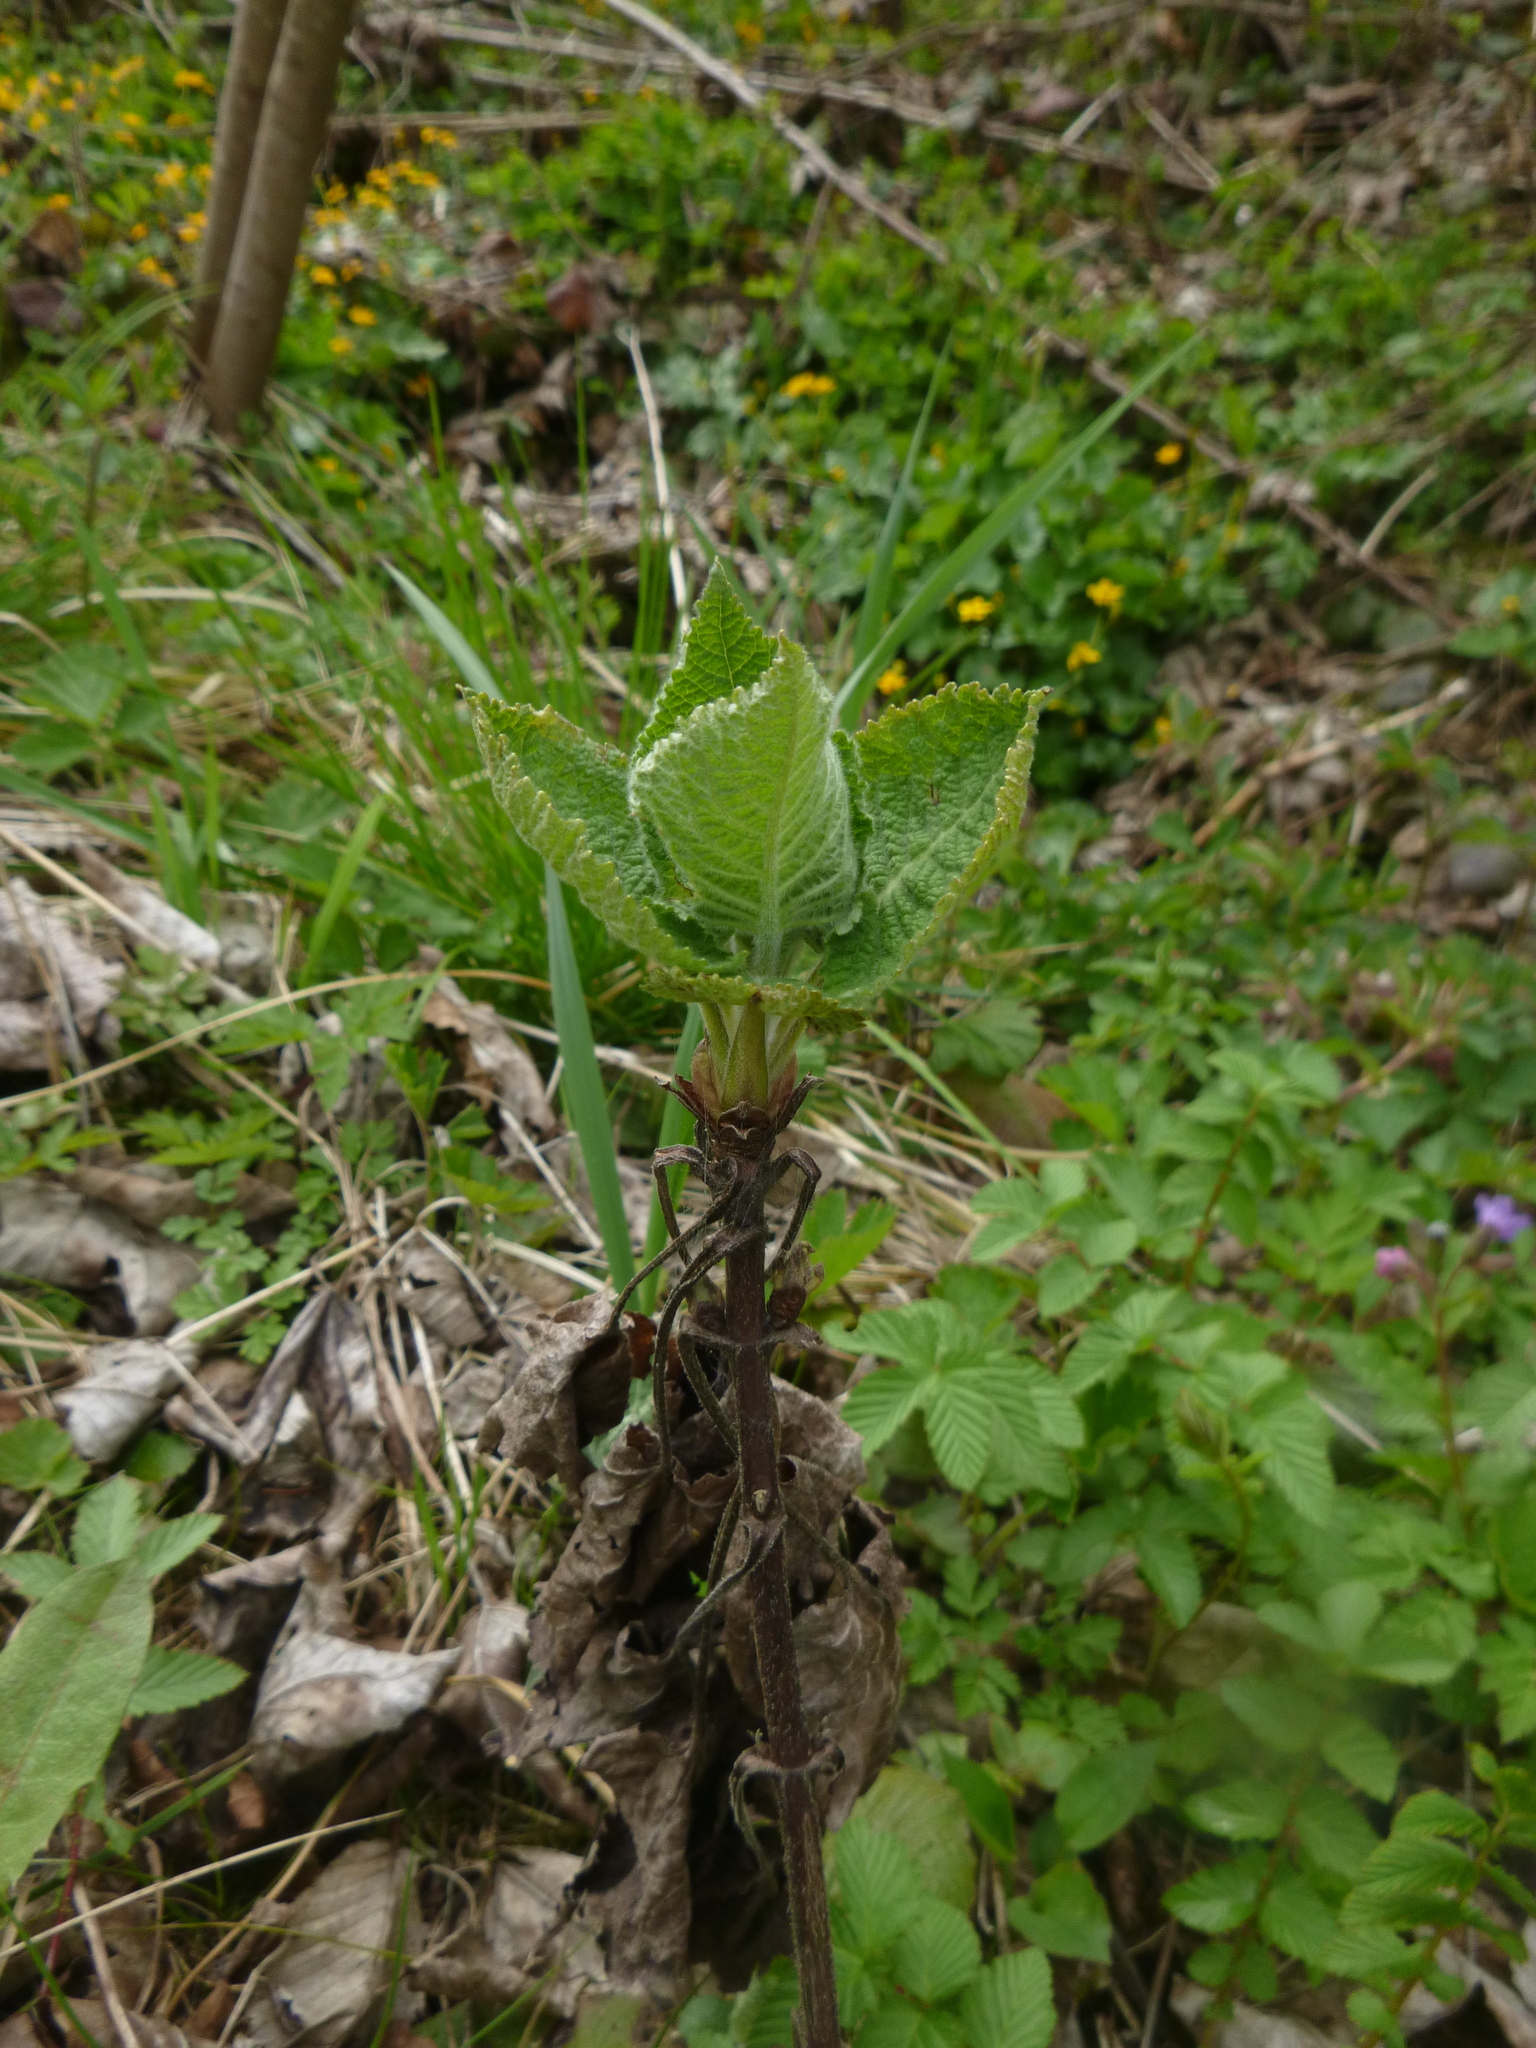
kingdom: Plantae
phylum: Tracheophyta
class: Magnoliopsida
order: Lamiales
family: Lamiaceae
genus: Salvia
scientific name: Salvia glutinosa
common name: Sticky clary
